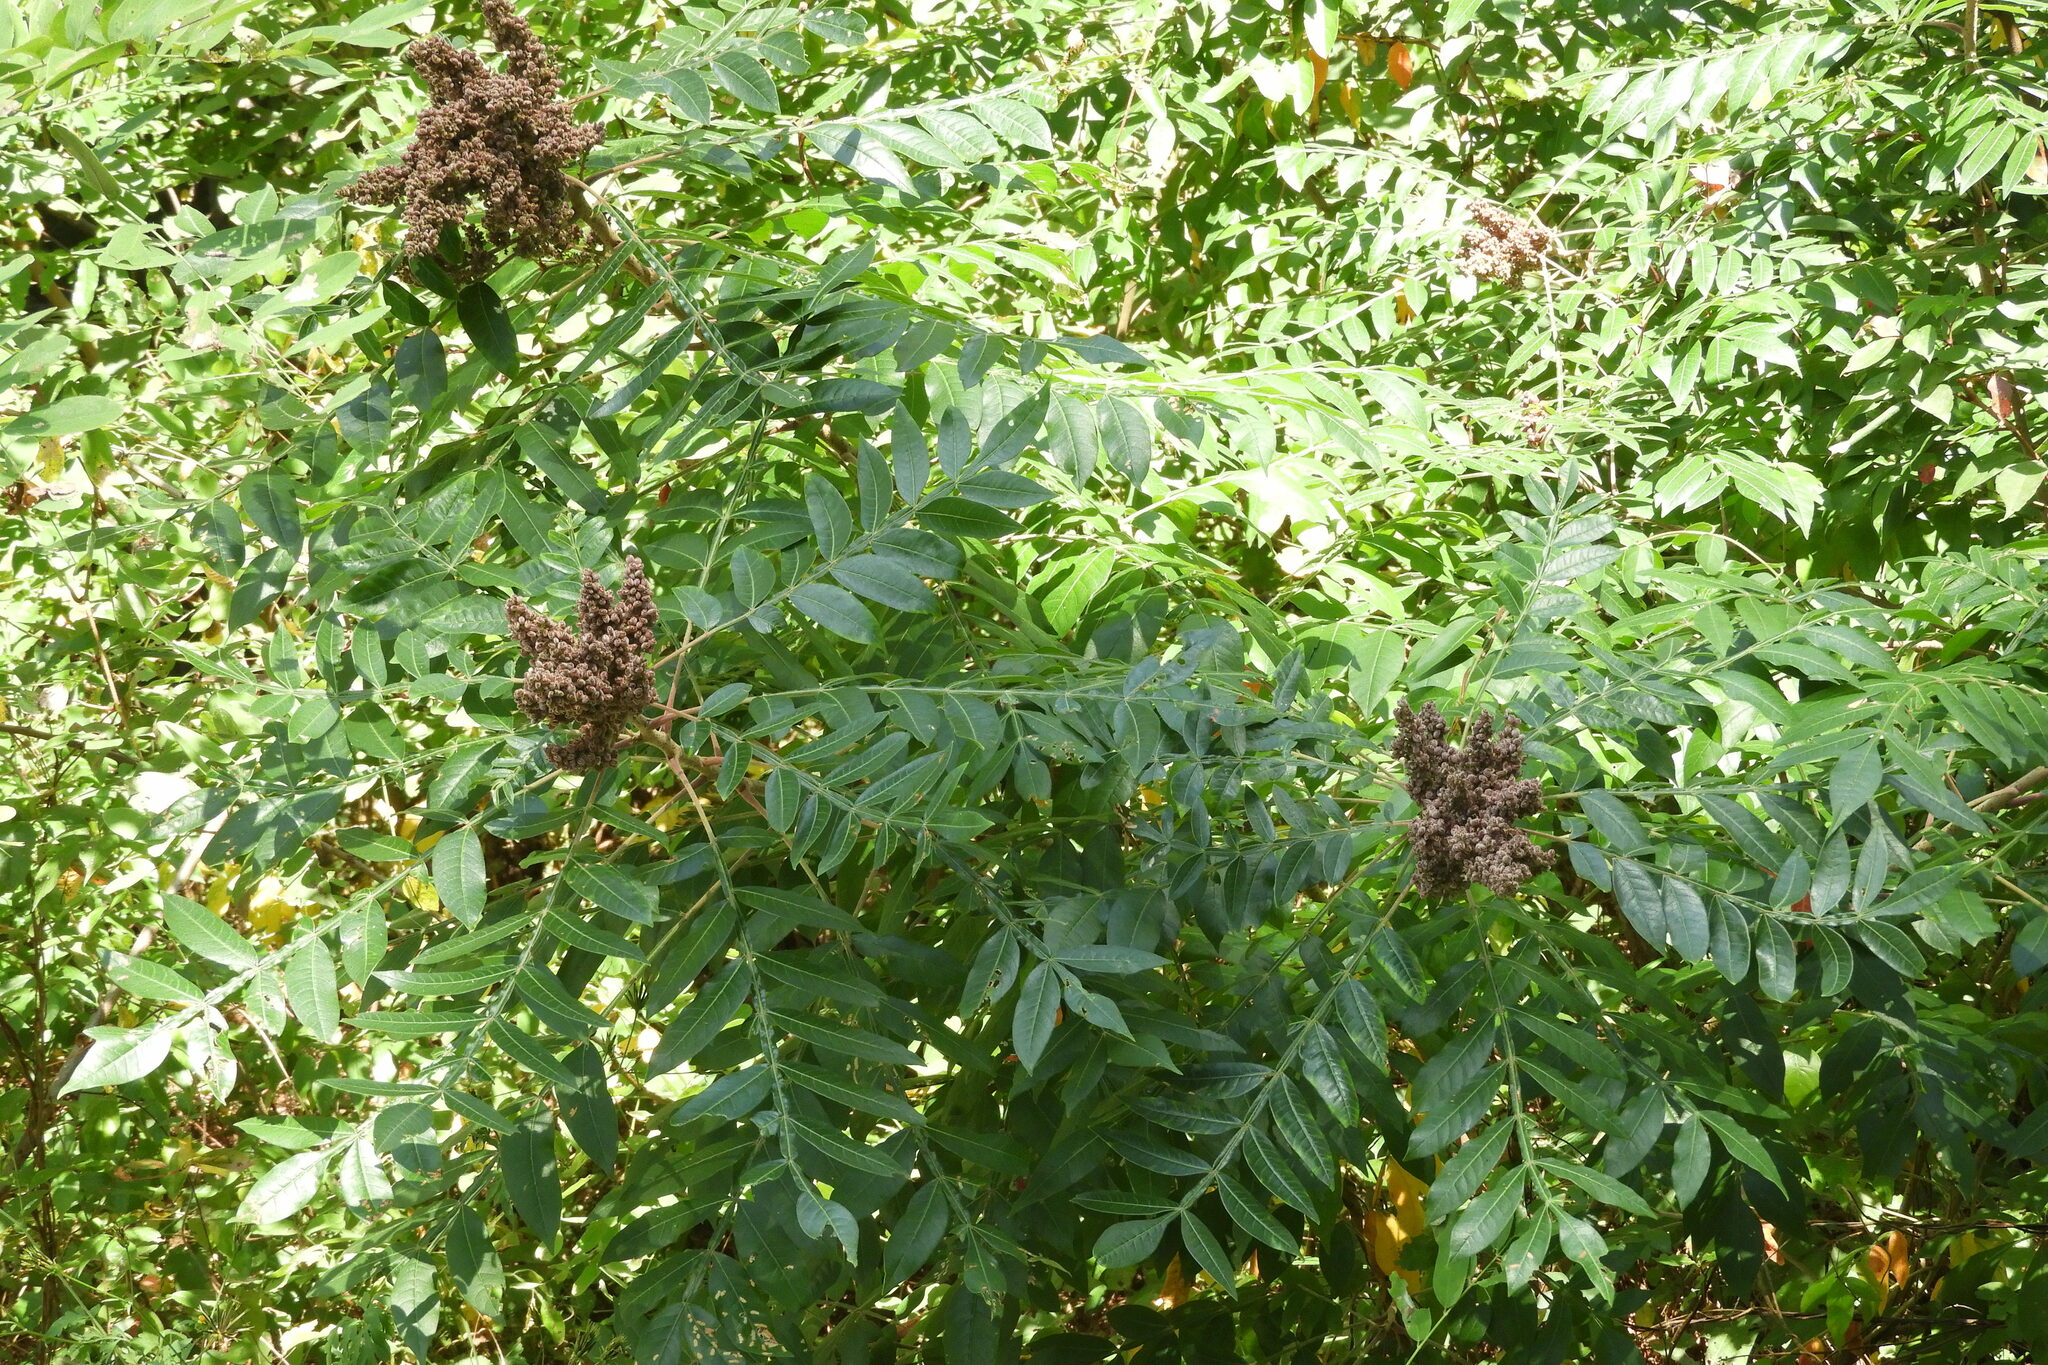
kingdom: Plantae
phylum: Tracheophyta
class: Magnoliopsida
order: Sapindales
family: Anacardiaceae
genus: Rhus
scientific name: Rhus copallina
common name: Shining sumac
